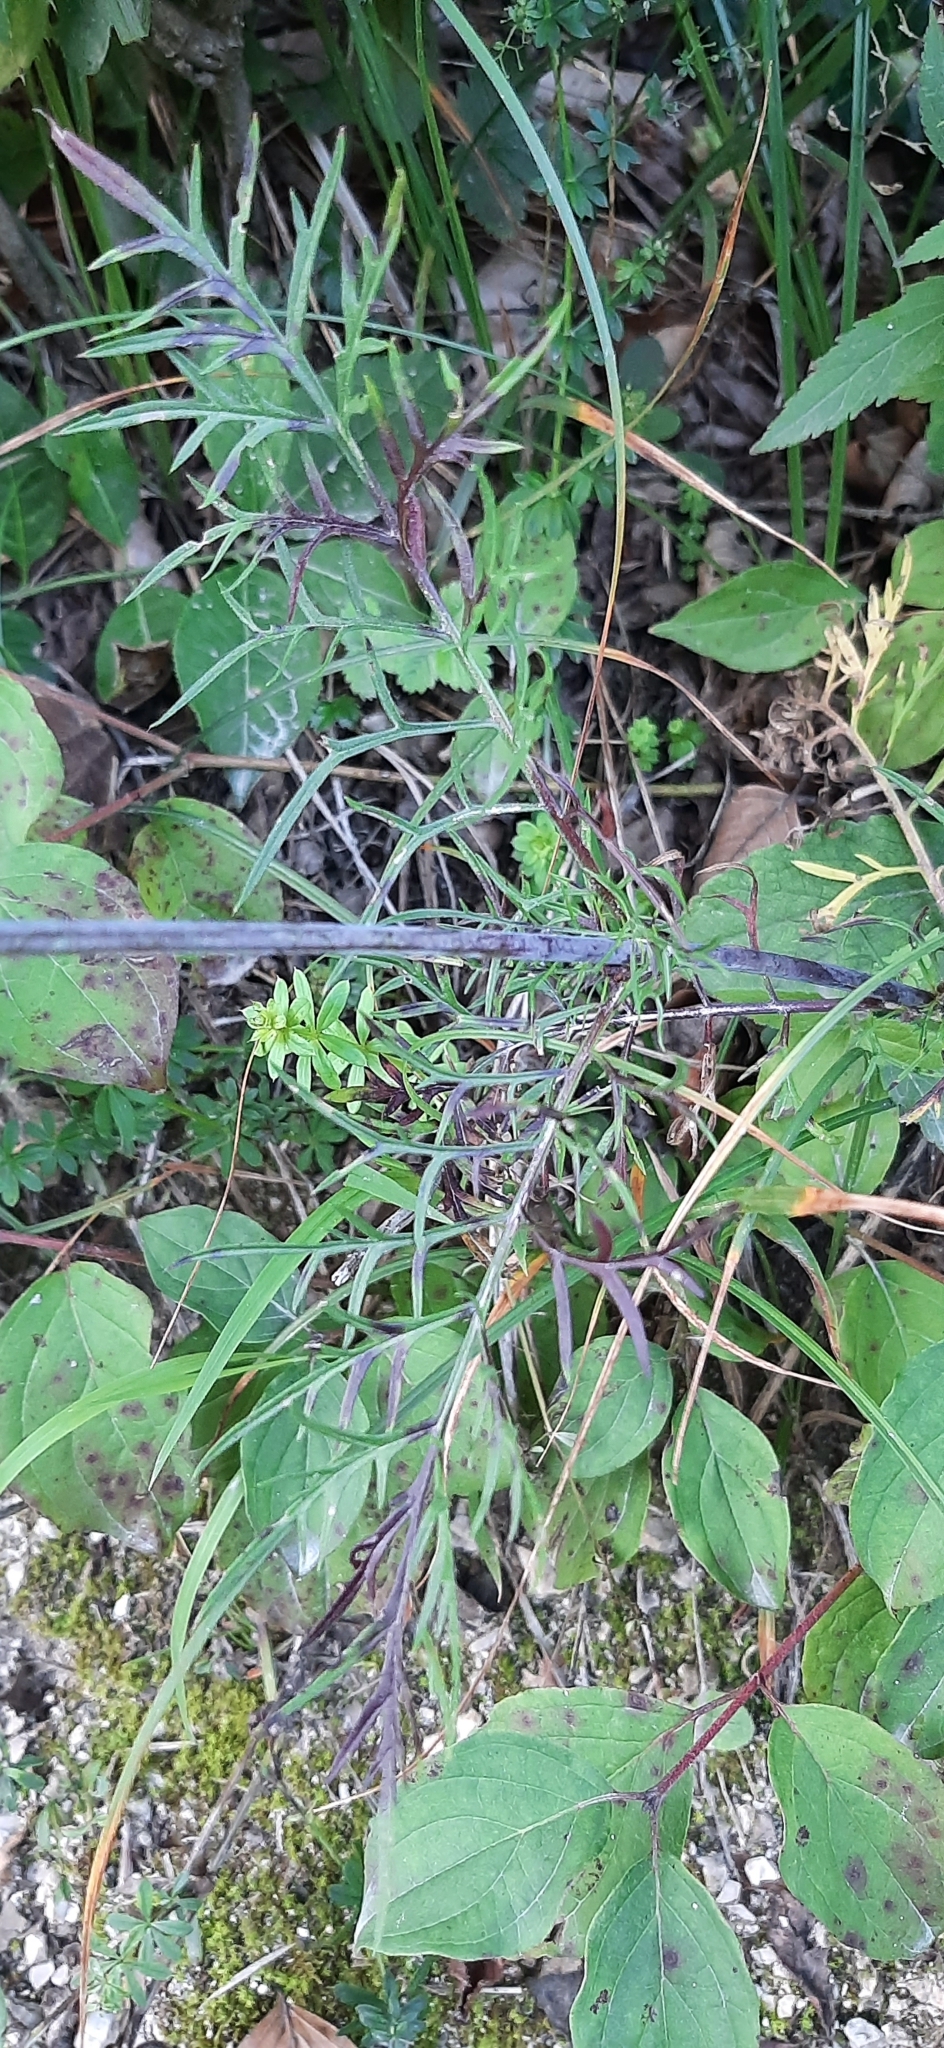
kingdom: Plantae
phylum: Tracheophyta
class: Magnoliopsida
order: Dipsacales
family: Caprifoliaceae
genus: Scabiosa
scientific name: Scabiosa triandra
